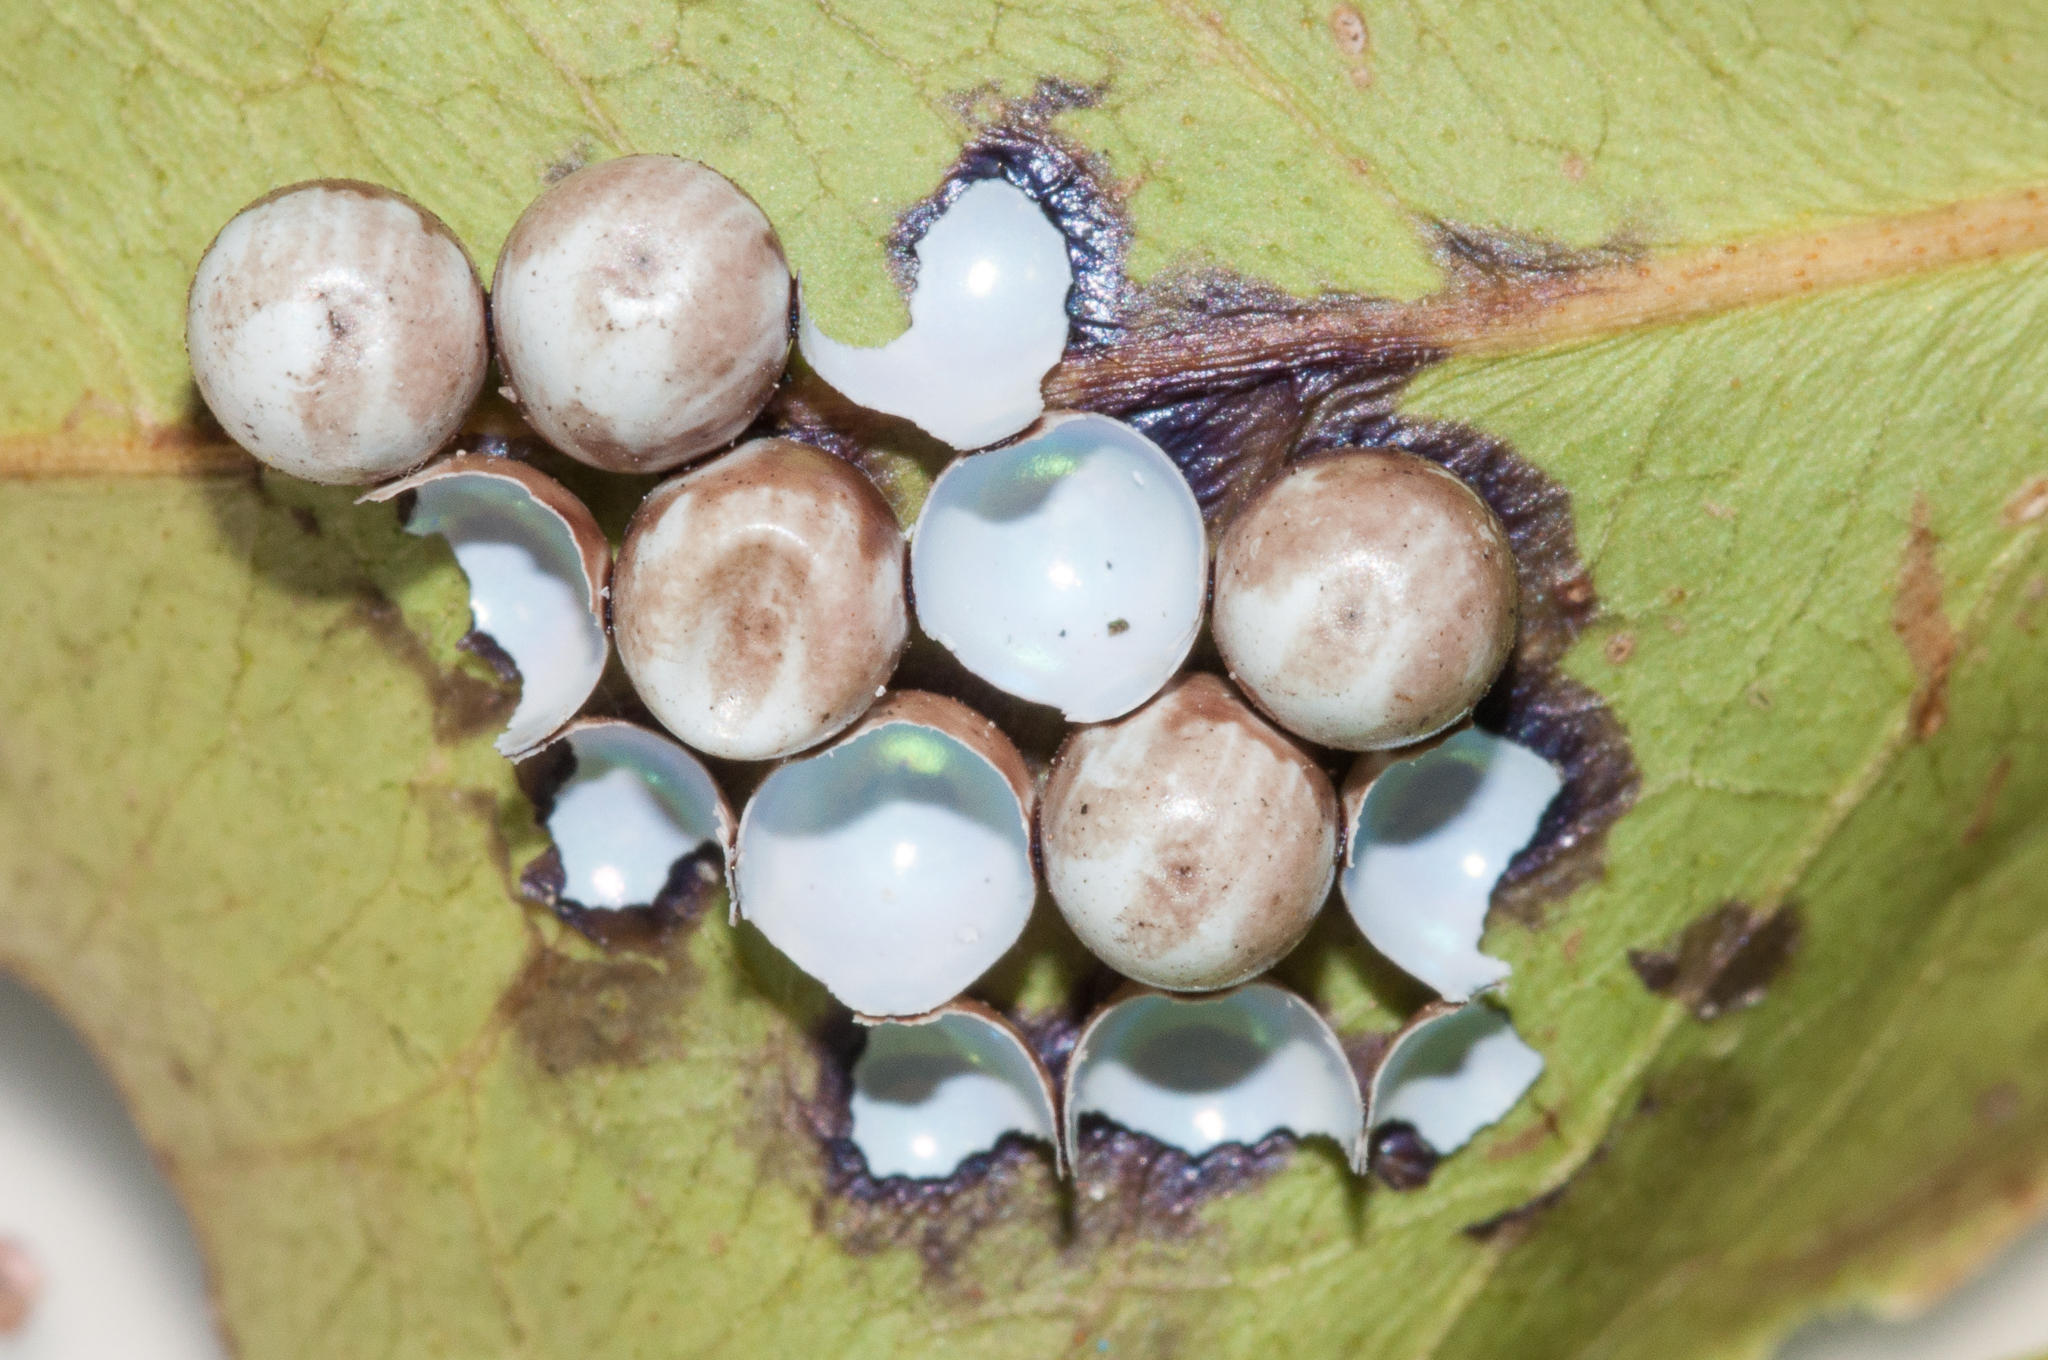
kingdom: Animalia
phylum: Arthropoda
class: Insecta
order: Lepidoptera
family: Saturniidae
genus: Nudaurelia
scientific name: Nudaurelia cytherea
